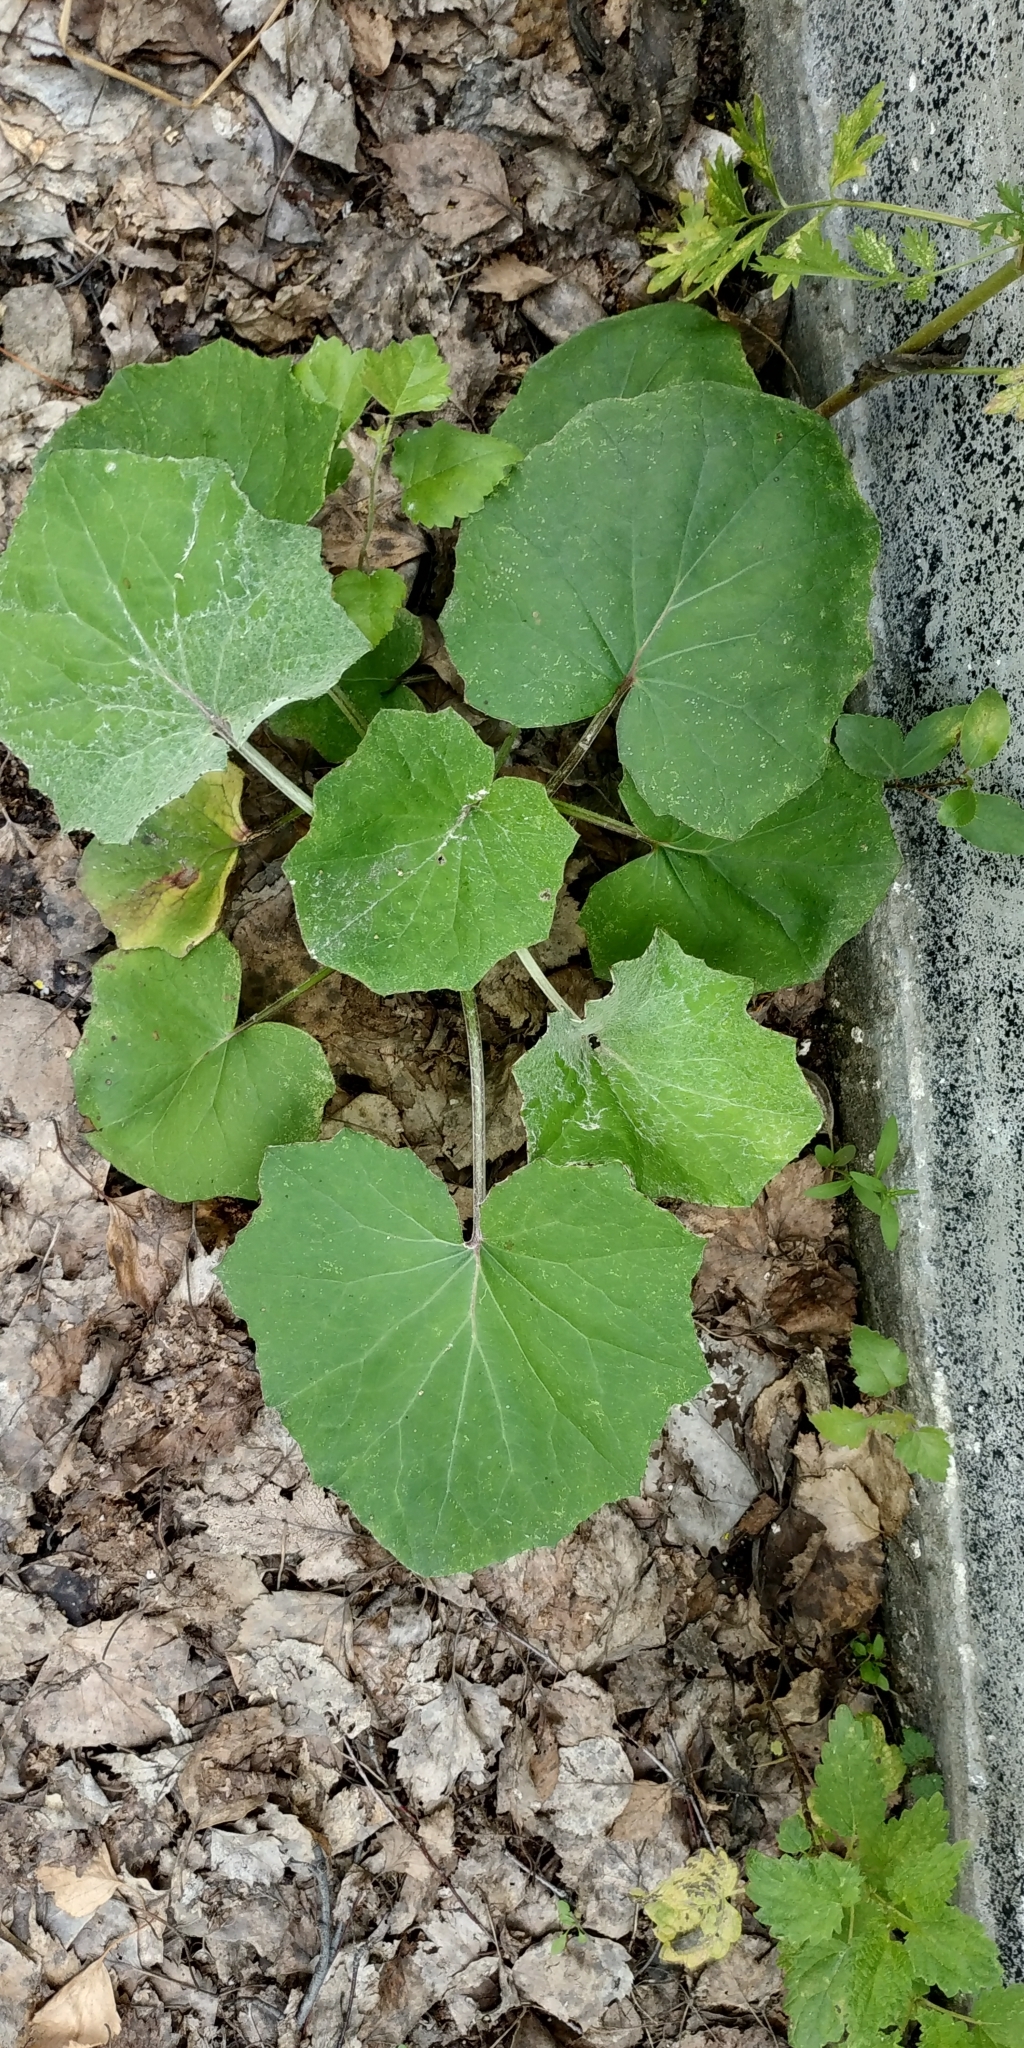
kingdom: Plantae
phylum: Tracheophyta
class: Magnoliopsida
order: Asterales
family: Asteraceae
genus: Tussilago
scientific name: Tussilago farfara
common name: Coltsfoot
